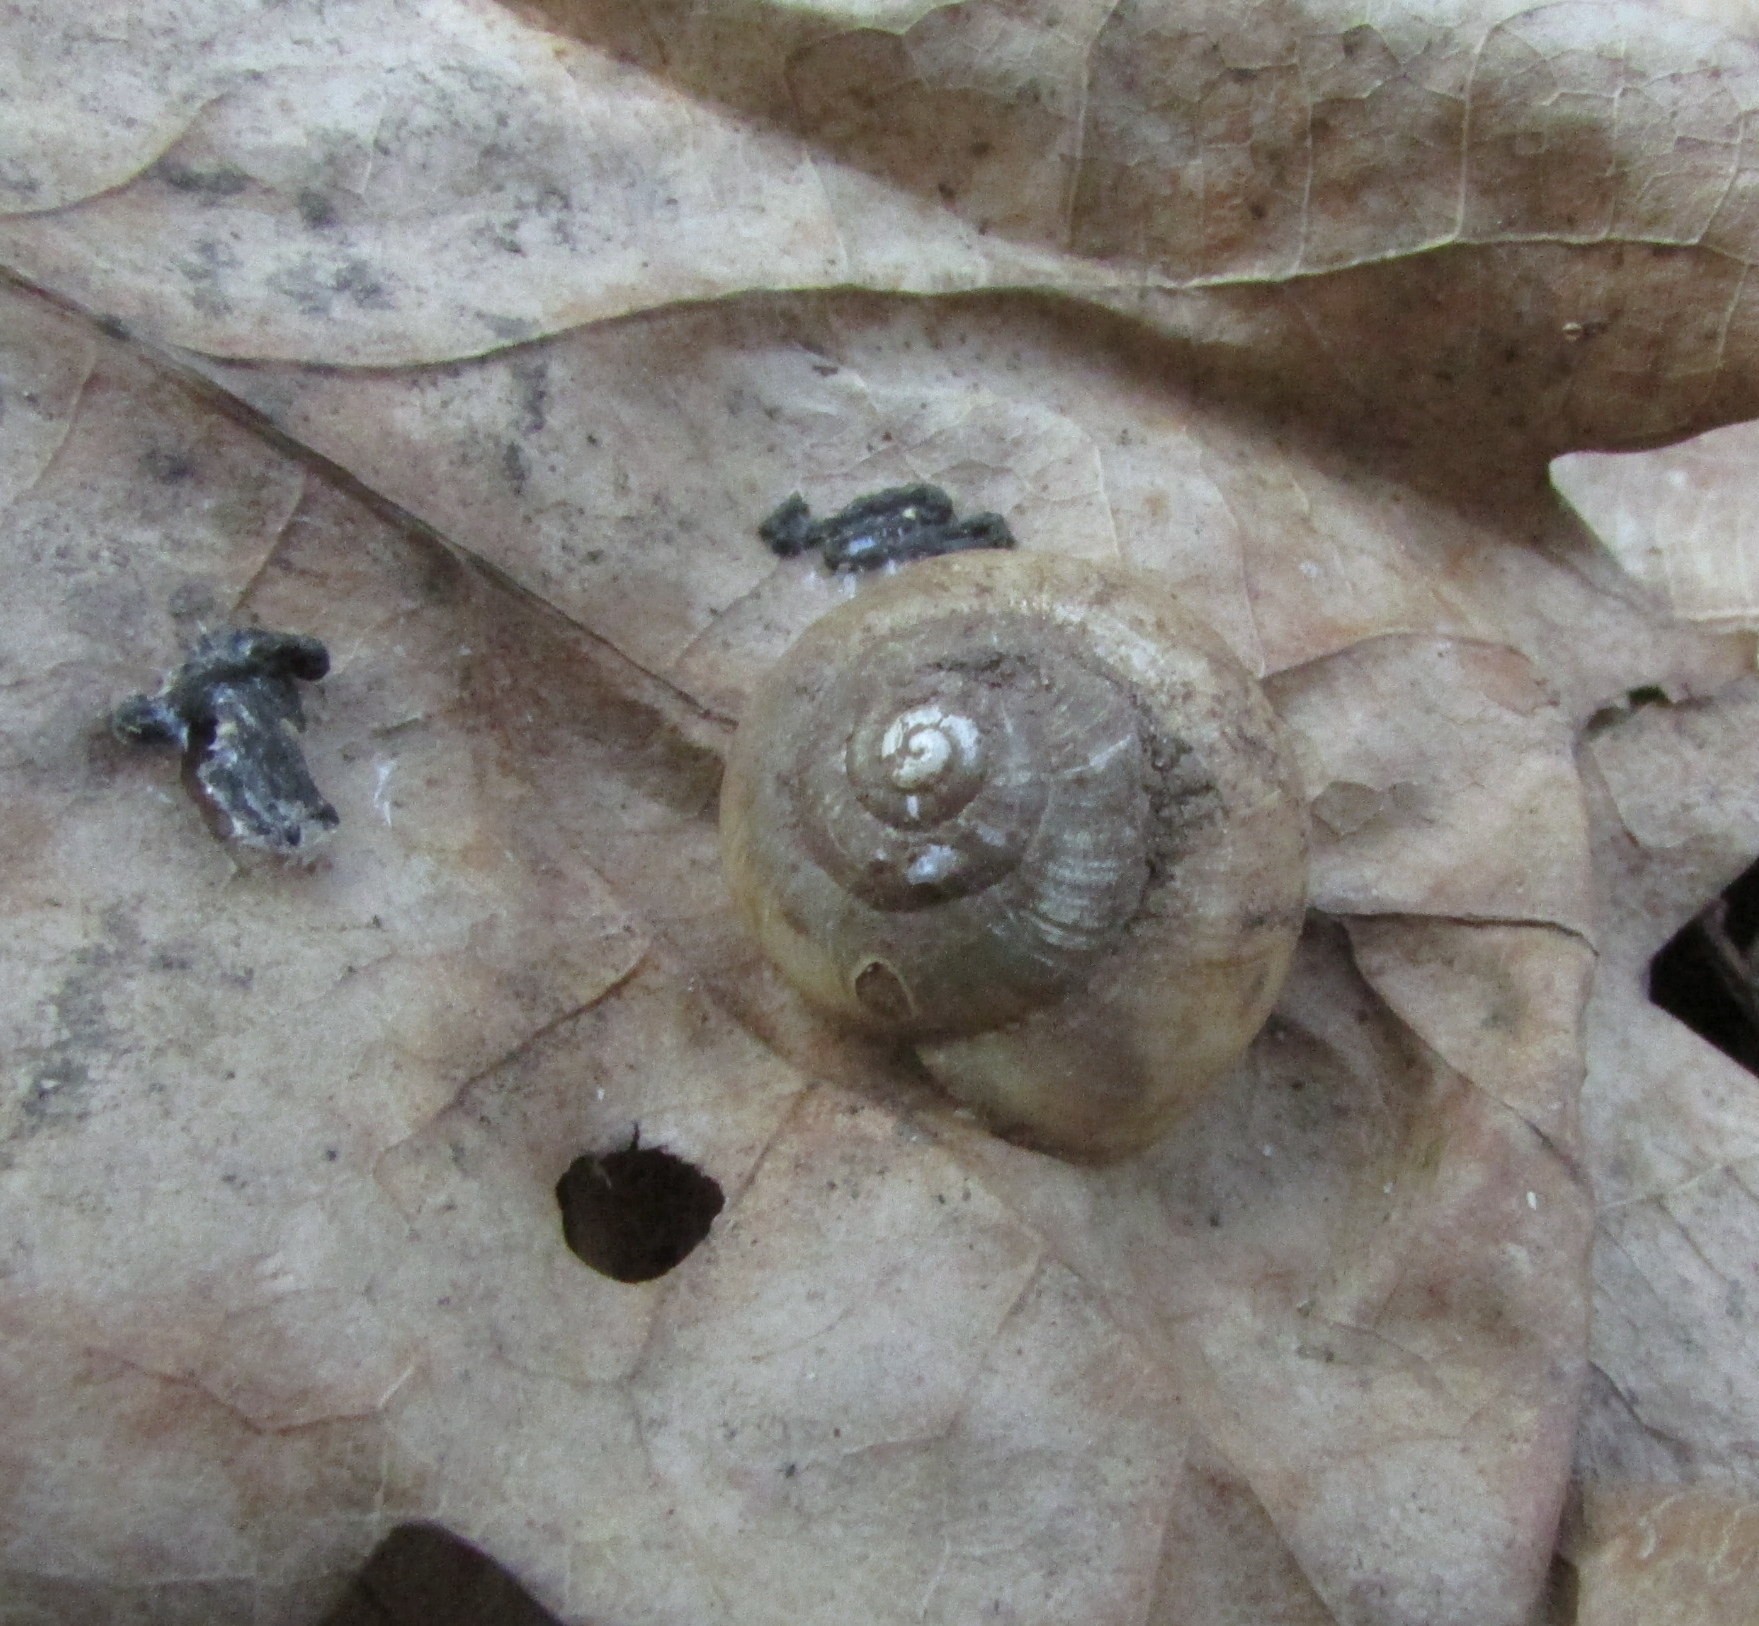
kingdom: Animalia
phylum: Mollusca
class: Gastropoda
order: Stylommatophora
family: Camaenidae
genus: Fruticicola
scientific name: Fruticicola fruticum
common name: Bush snail
